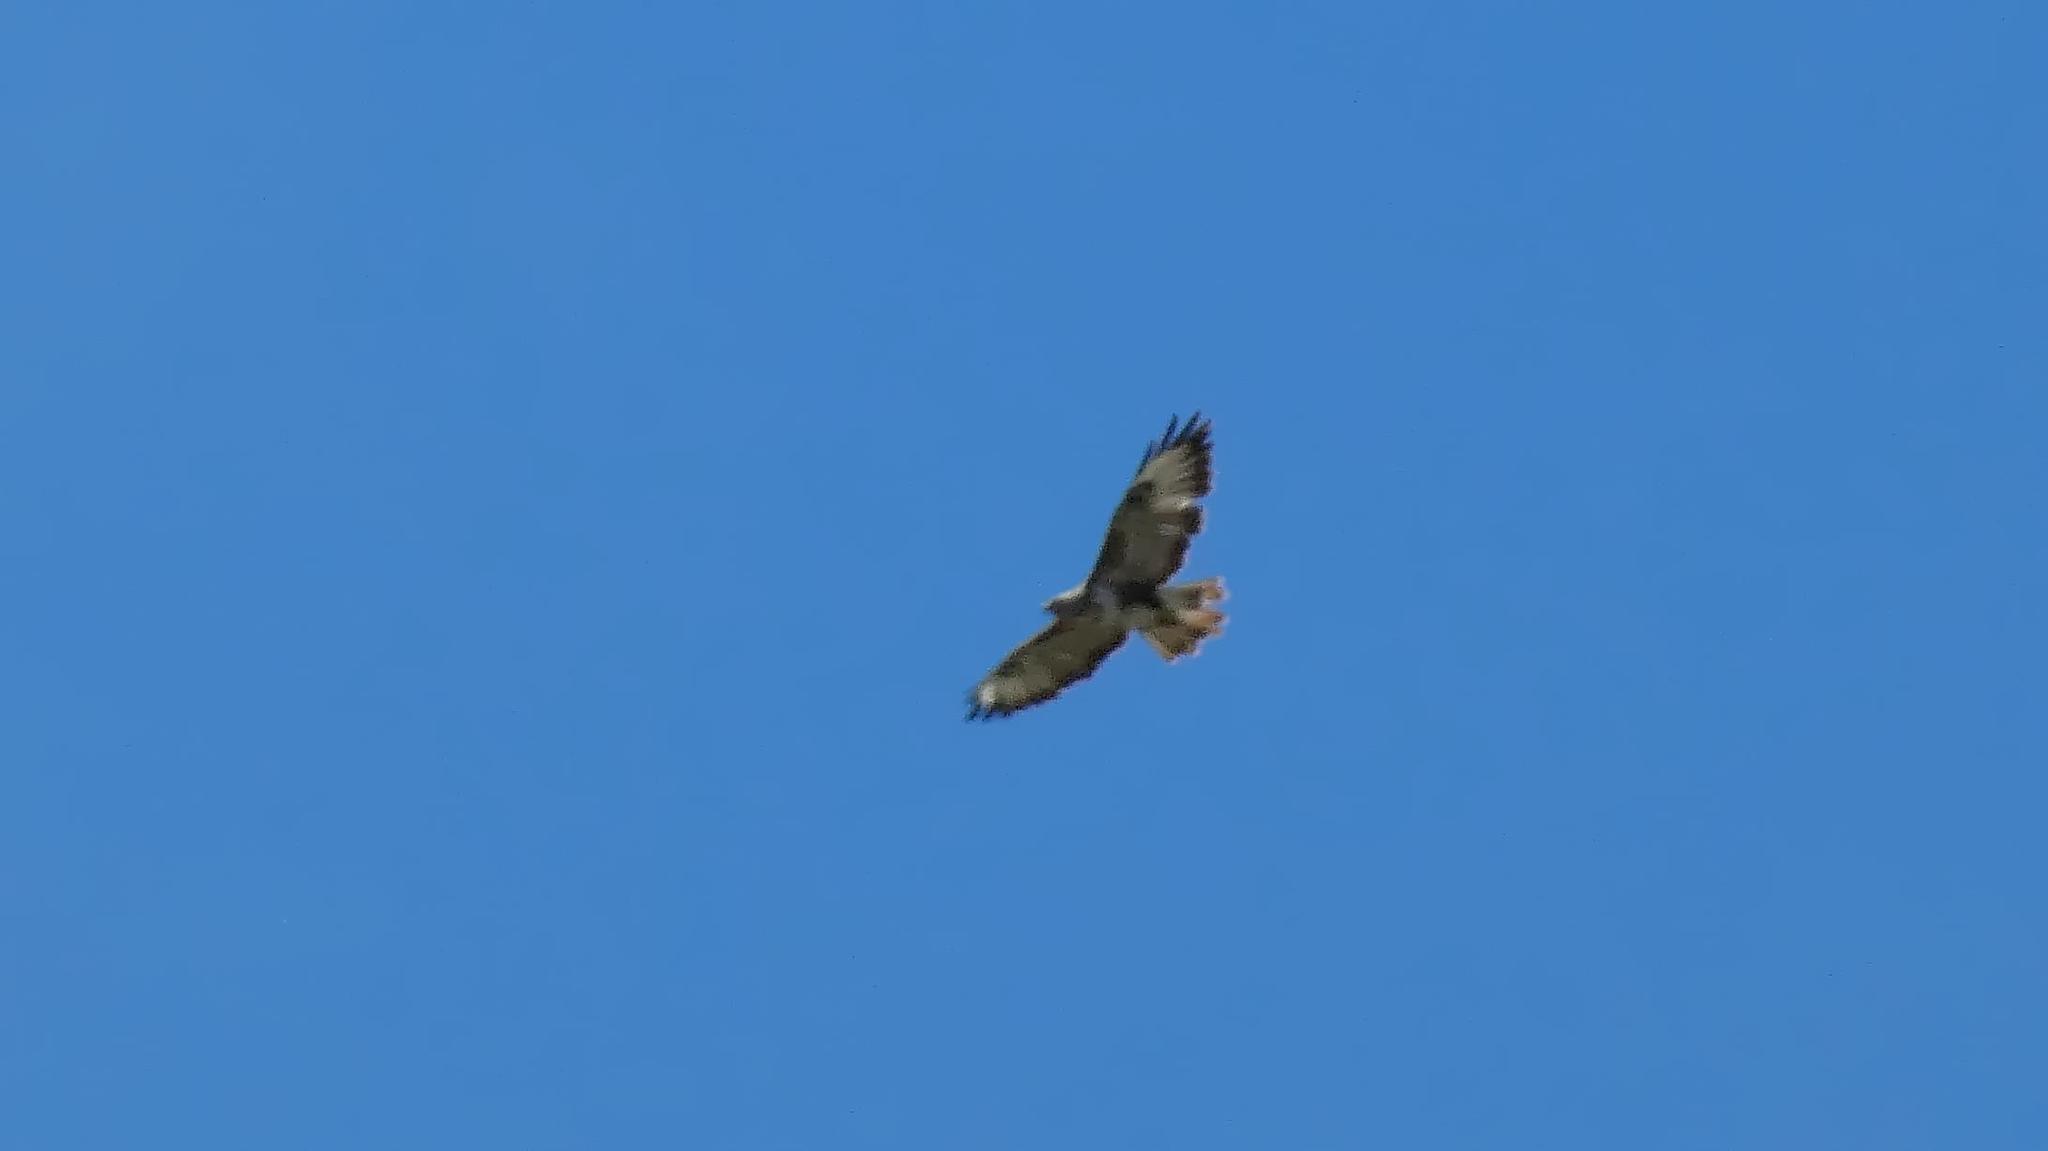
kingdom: Animalia
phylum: Chordata
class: Aves
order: Accipitriformes
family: Accipitridae
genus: Buteo
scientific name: Buteo buteo
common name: Common buzzard
